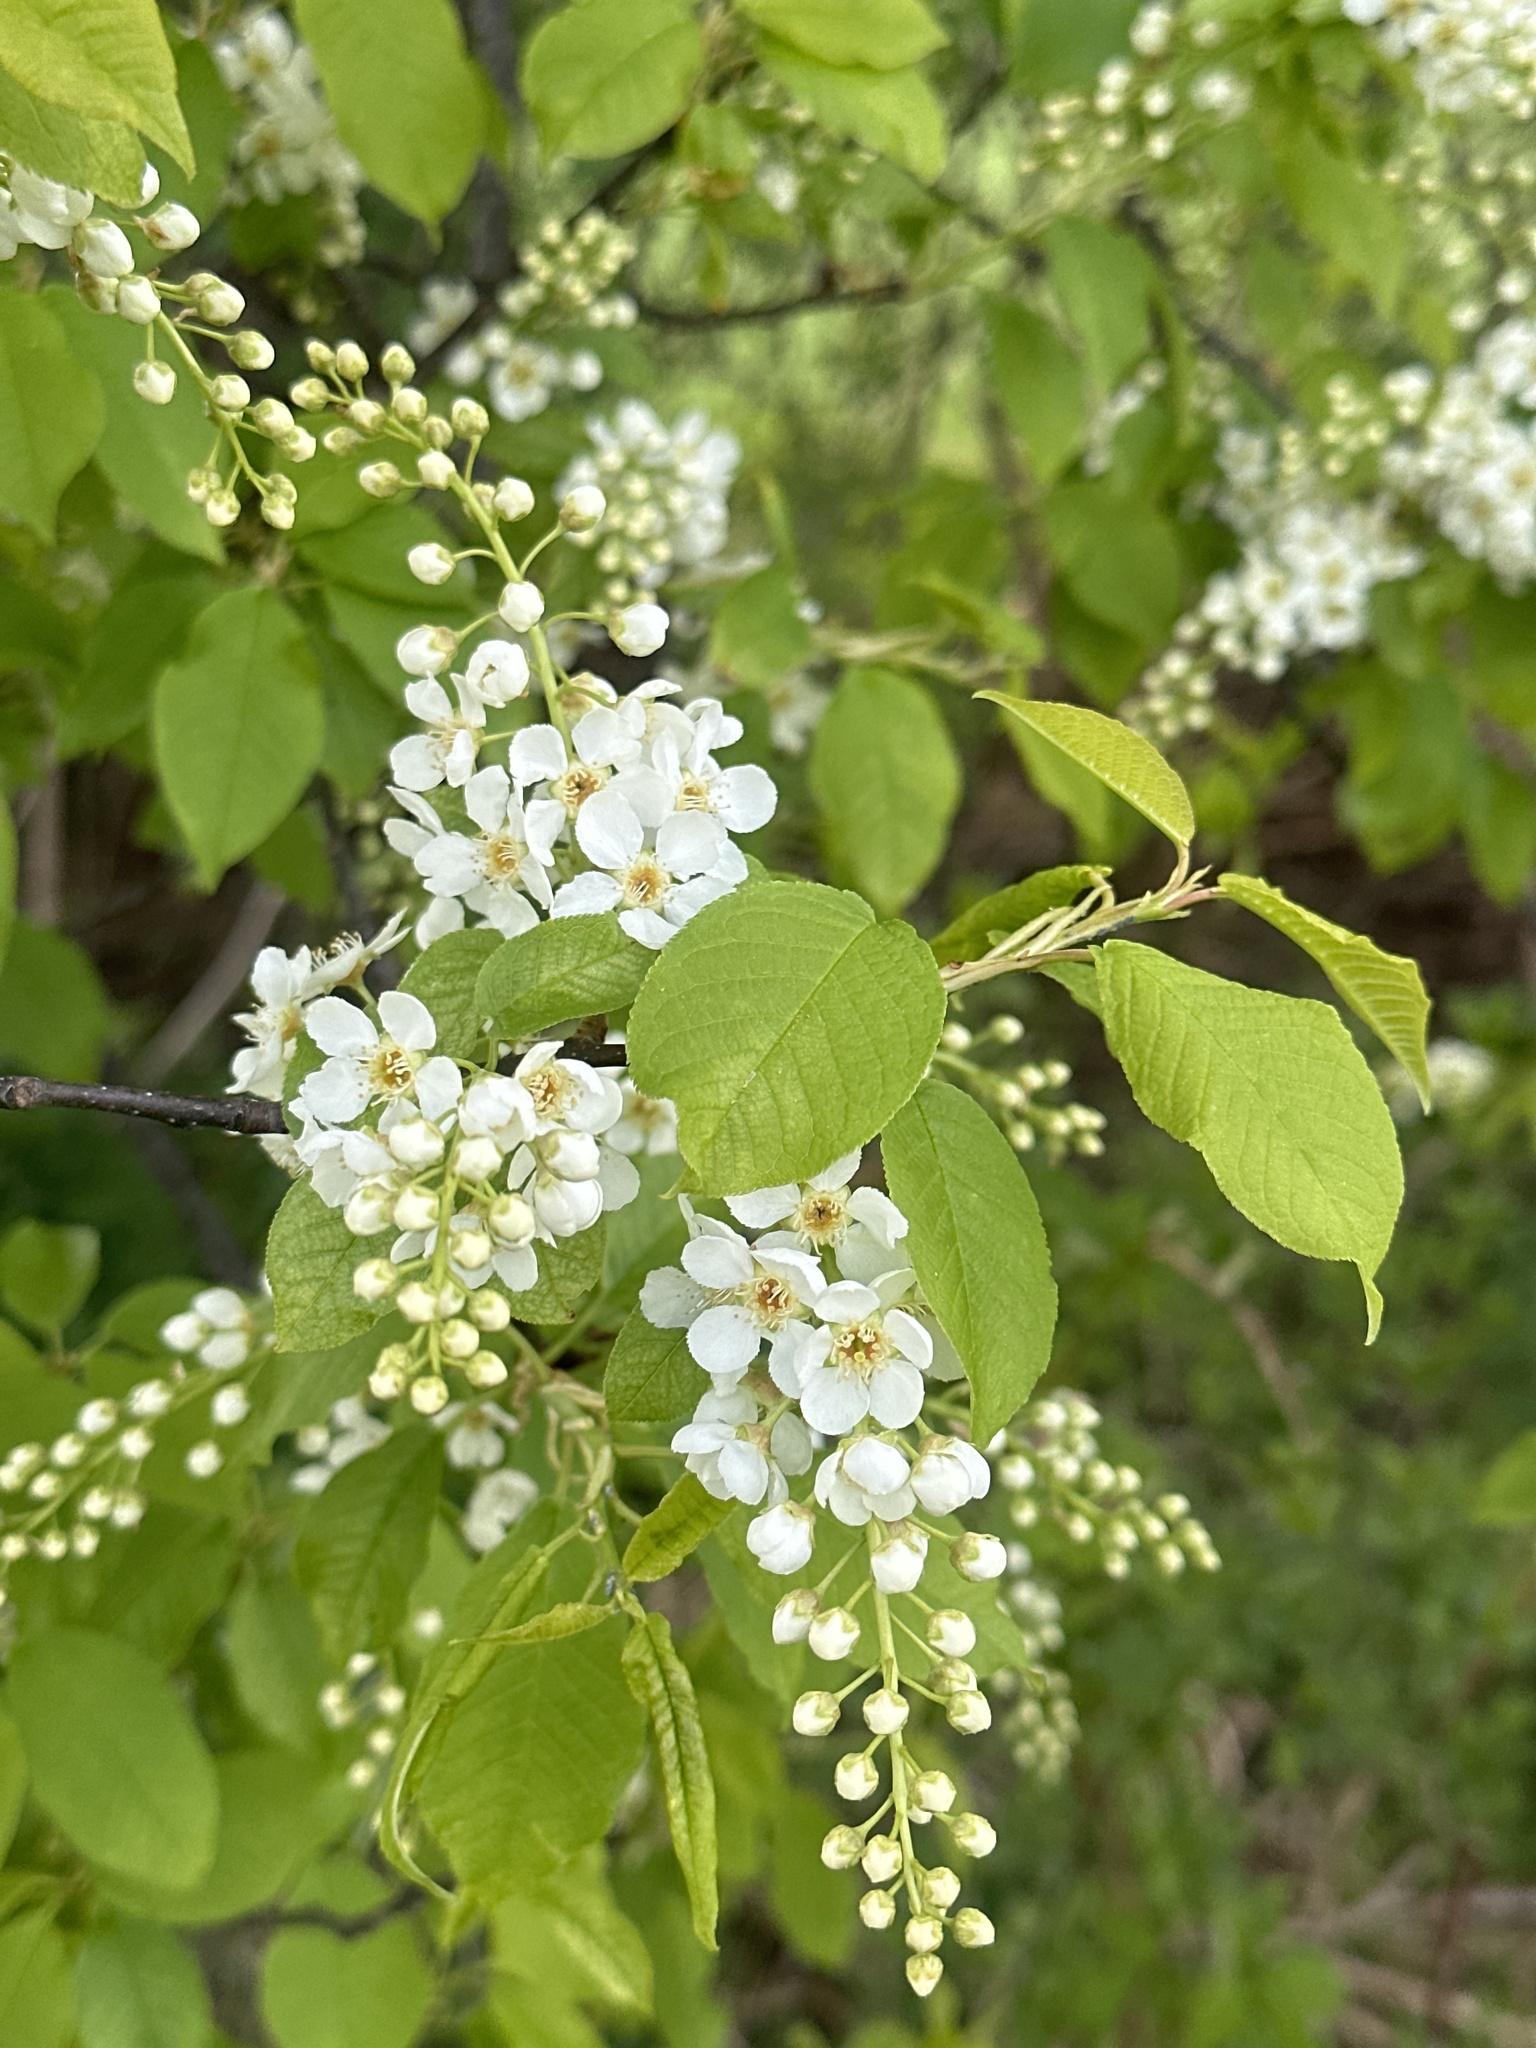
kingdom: Plantae
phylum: Tracheophyta
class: Magnoliopsida
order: Rosales
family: Rosaceae
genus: Prunus
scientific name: Prunus padus
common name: Bird cherry
